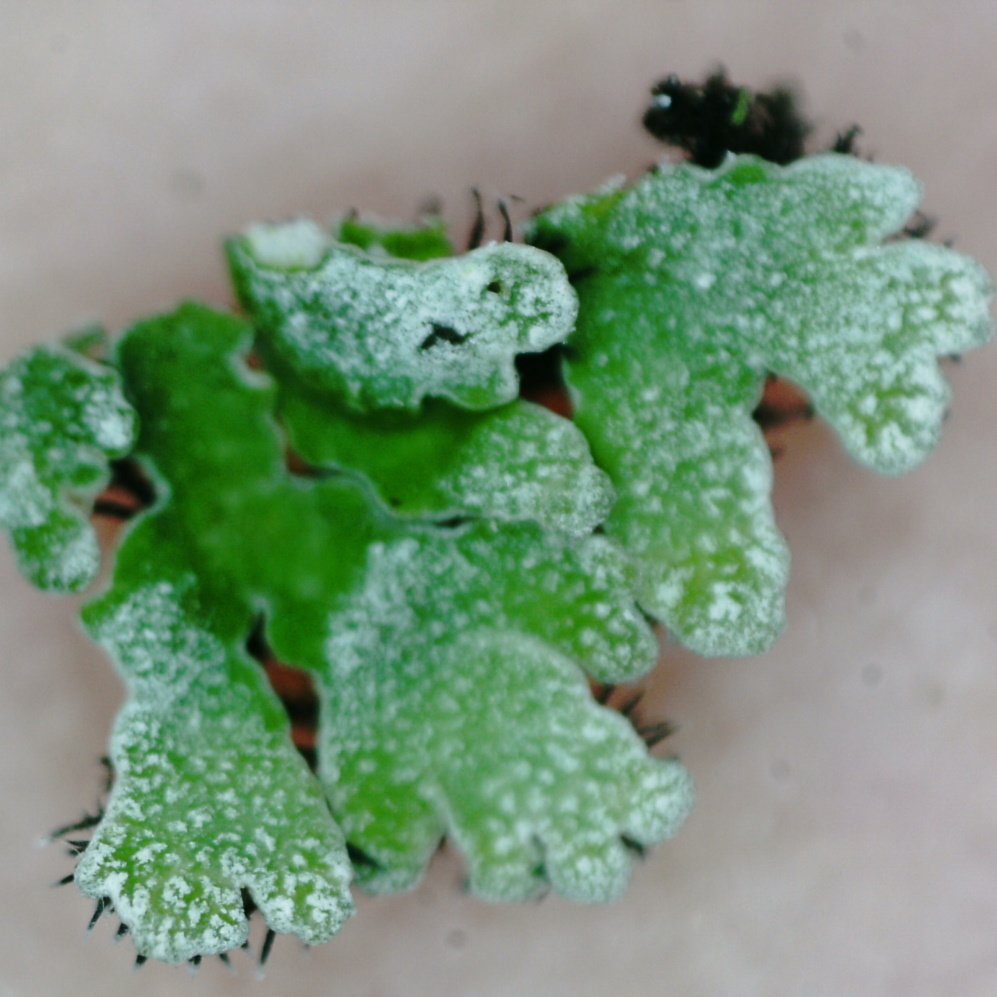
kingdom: Fungi
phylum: Ascomycota
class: Lecanoromycetes
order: Caliciales
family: Physciaceae
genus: Physconia
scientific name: Physconia distorta
